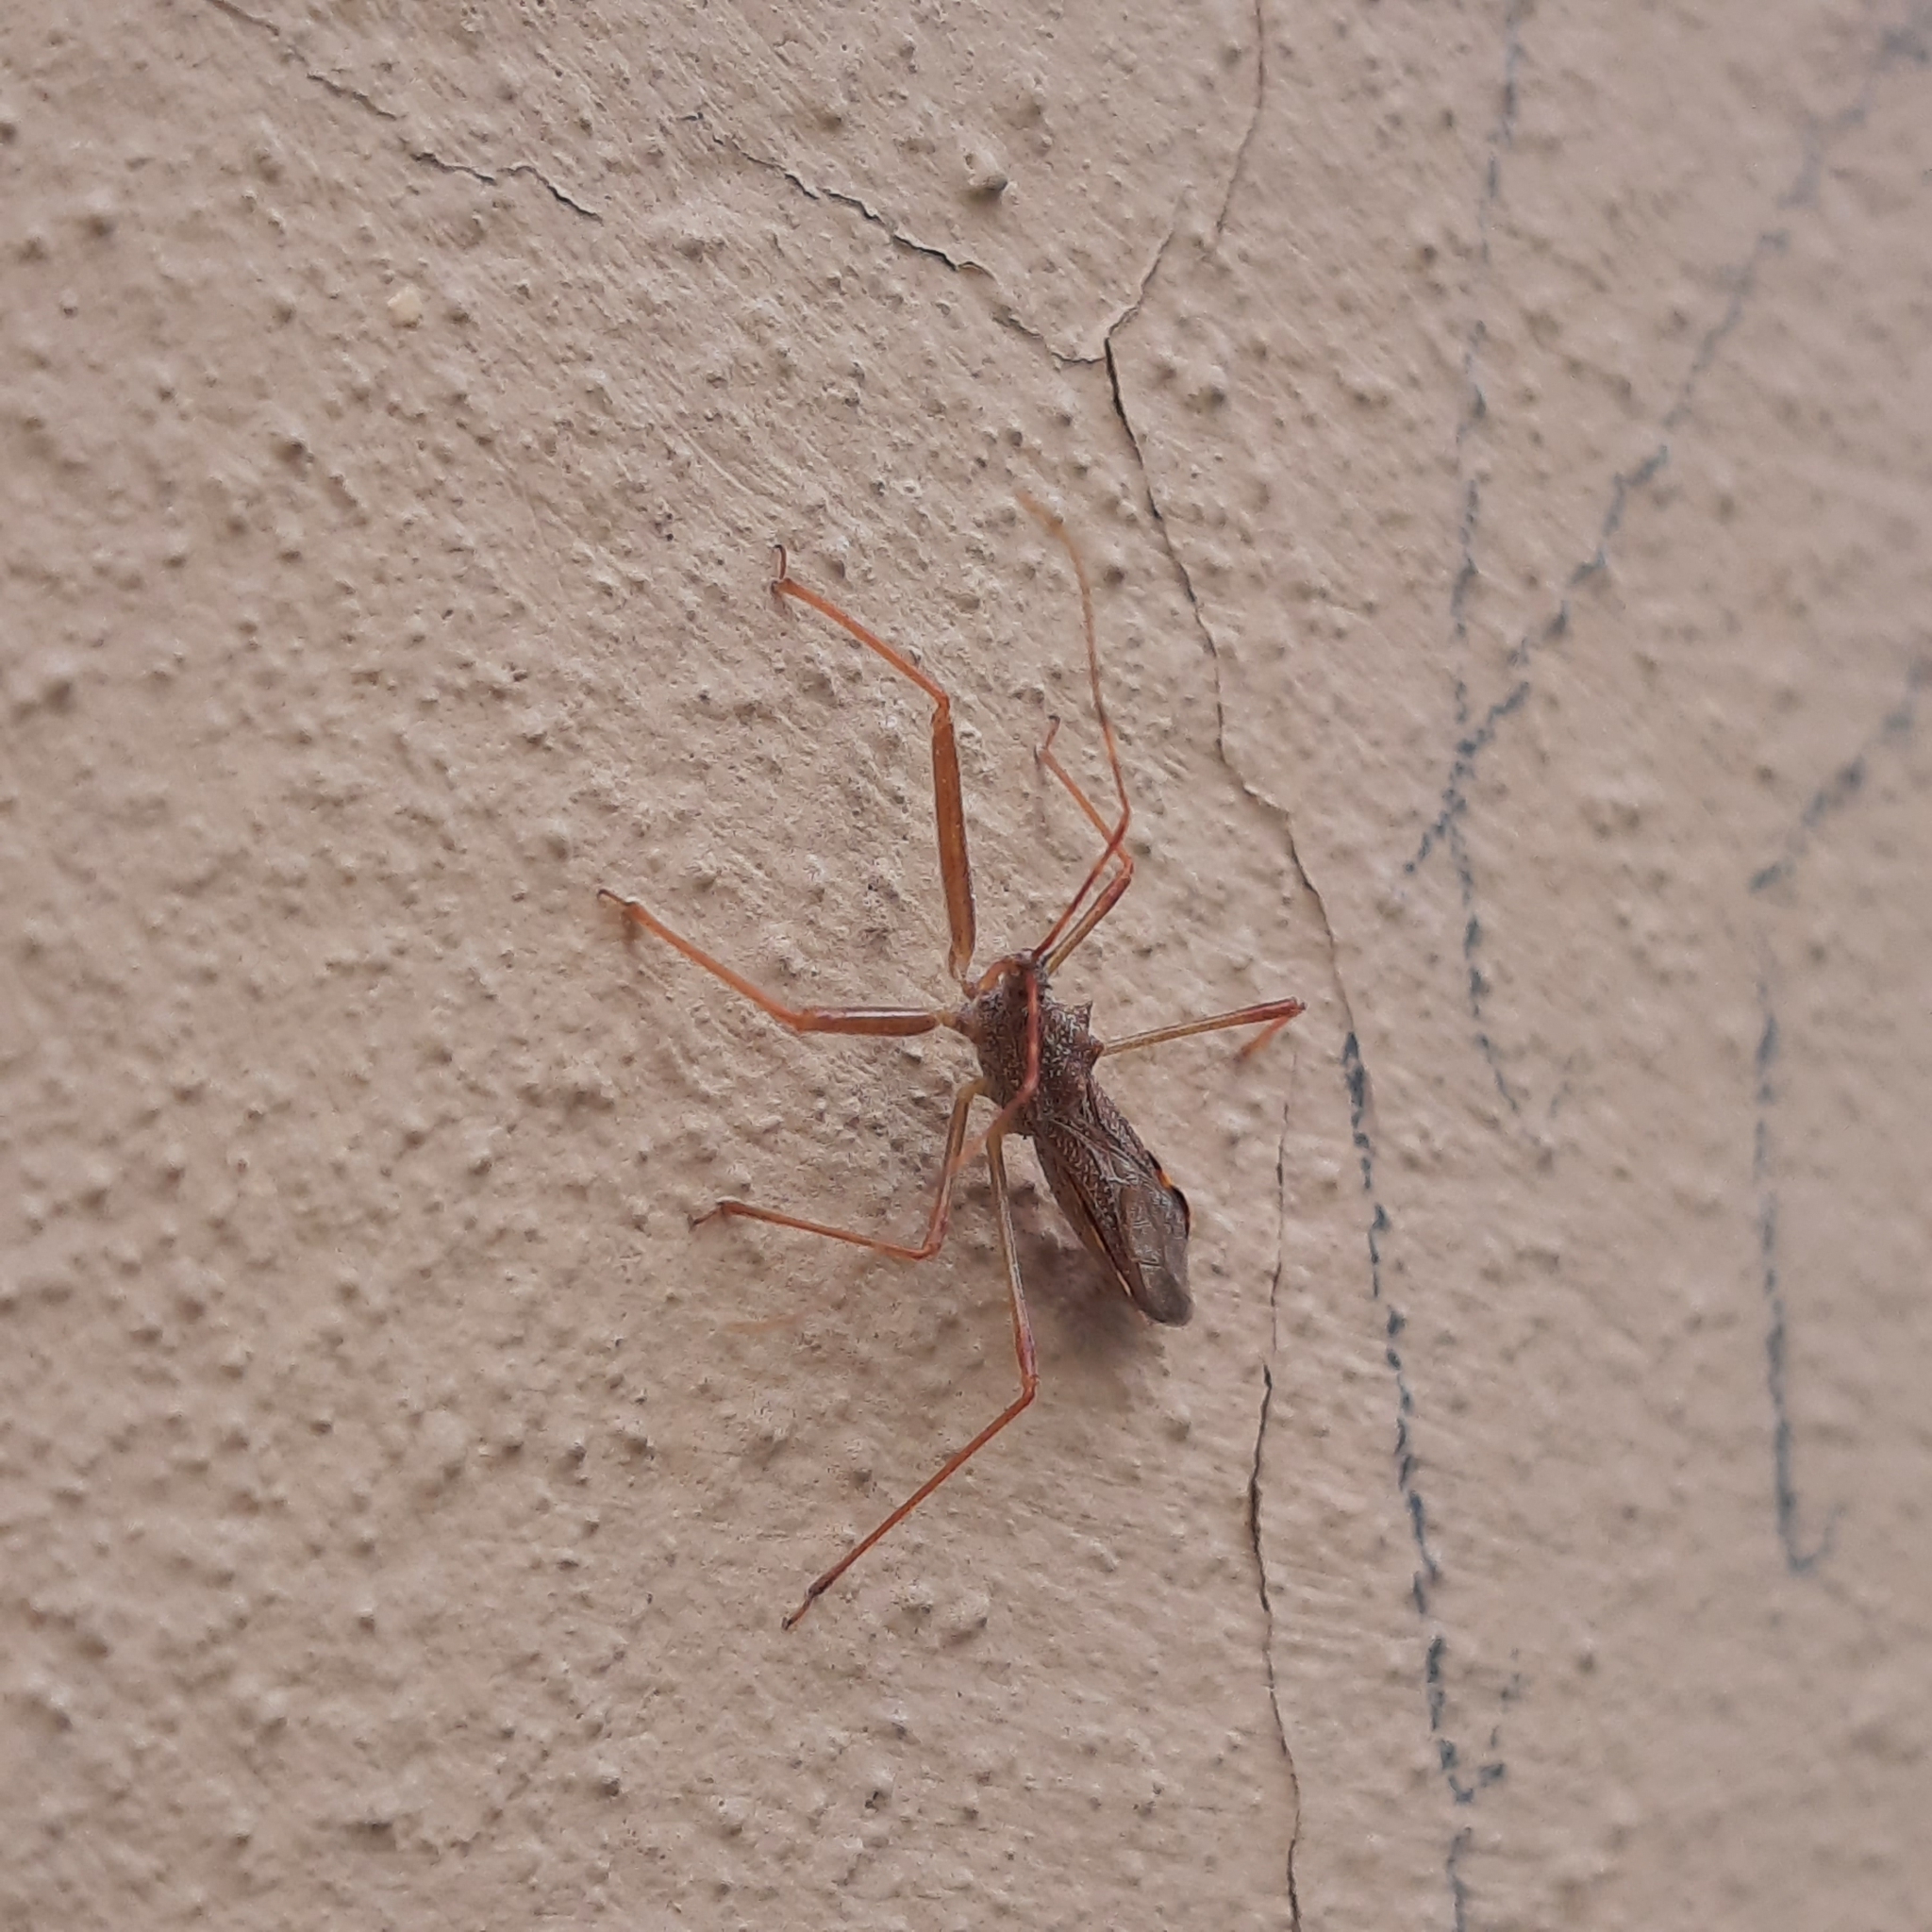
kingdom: Animalia
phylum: Arthropoda
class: Insecta
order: Hemiptera
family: Reduviidae
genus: Nagusta
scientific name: Nagusta goedelii
